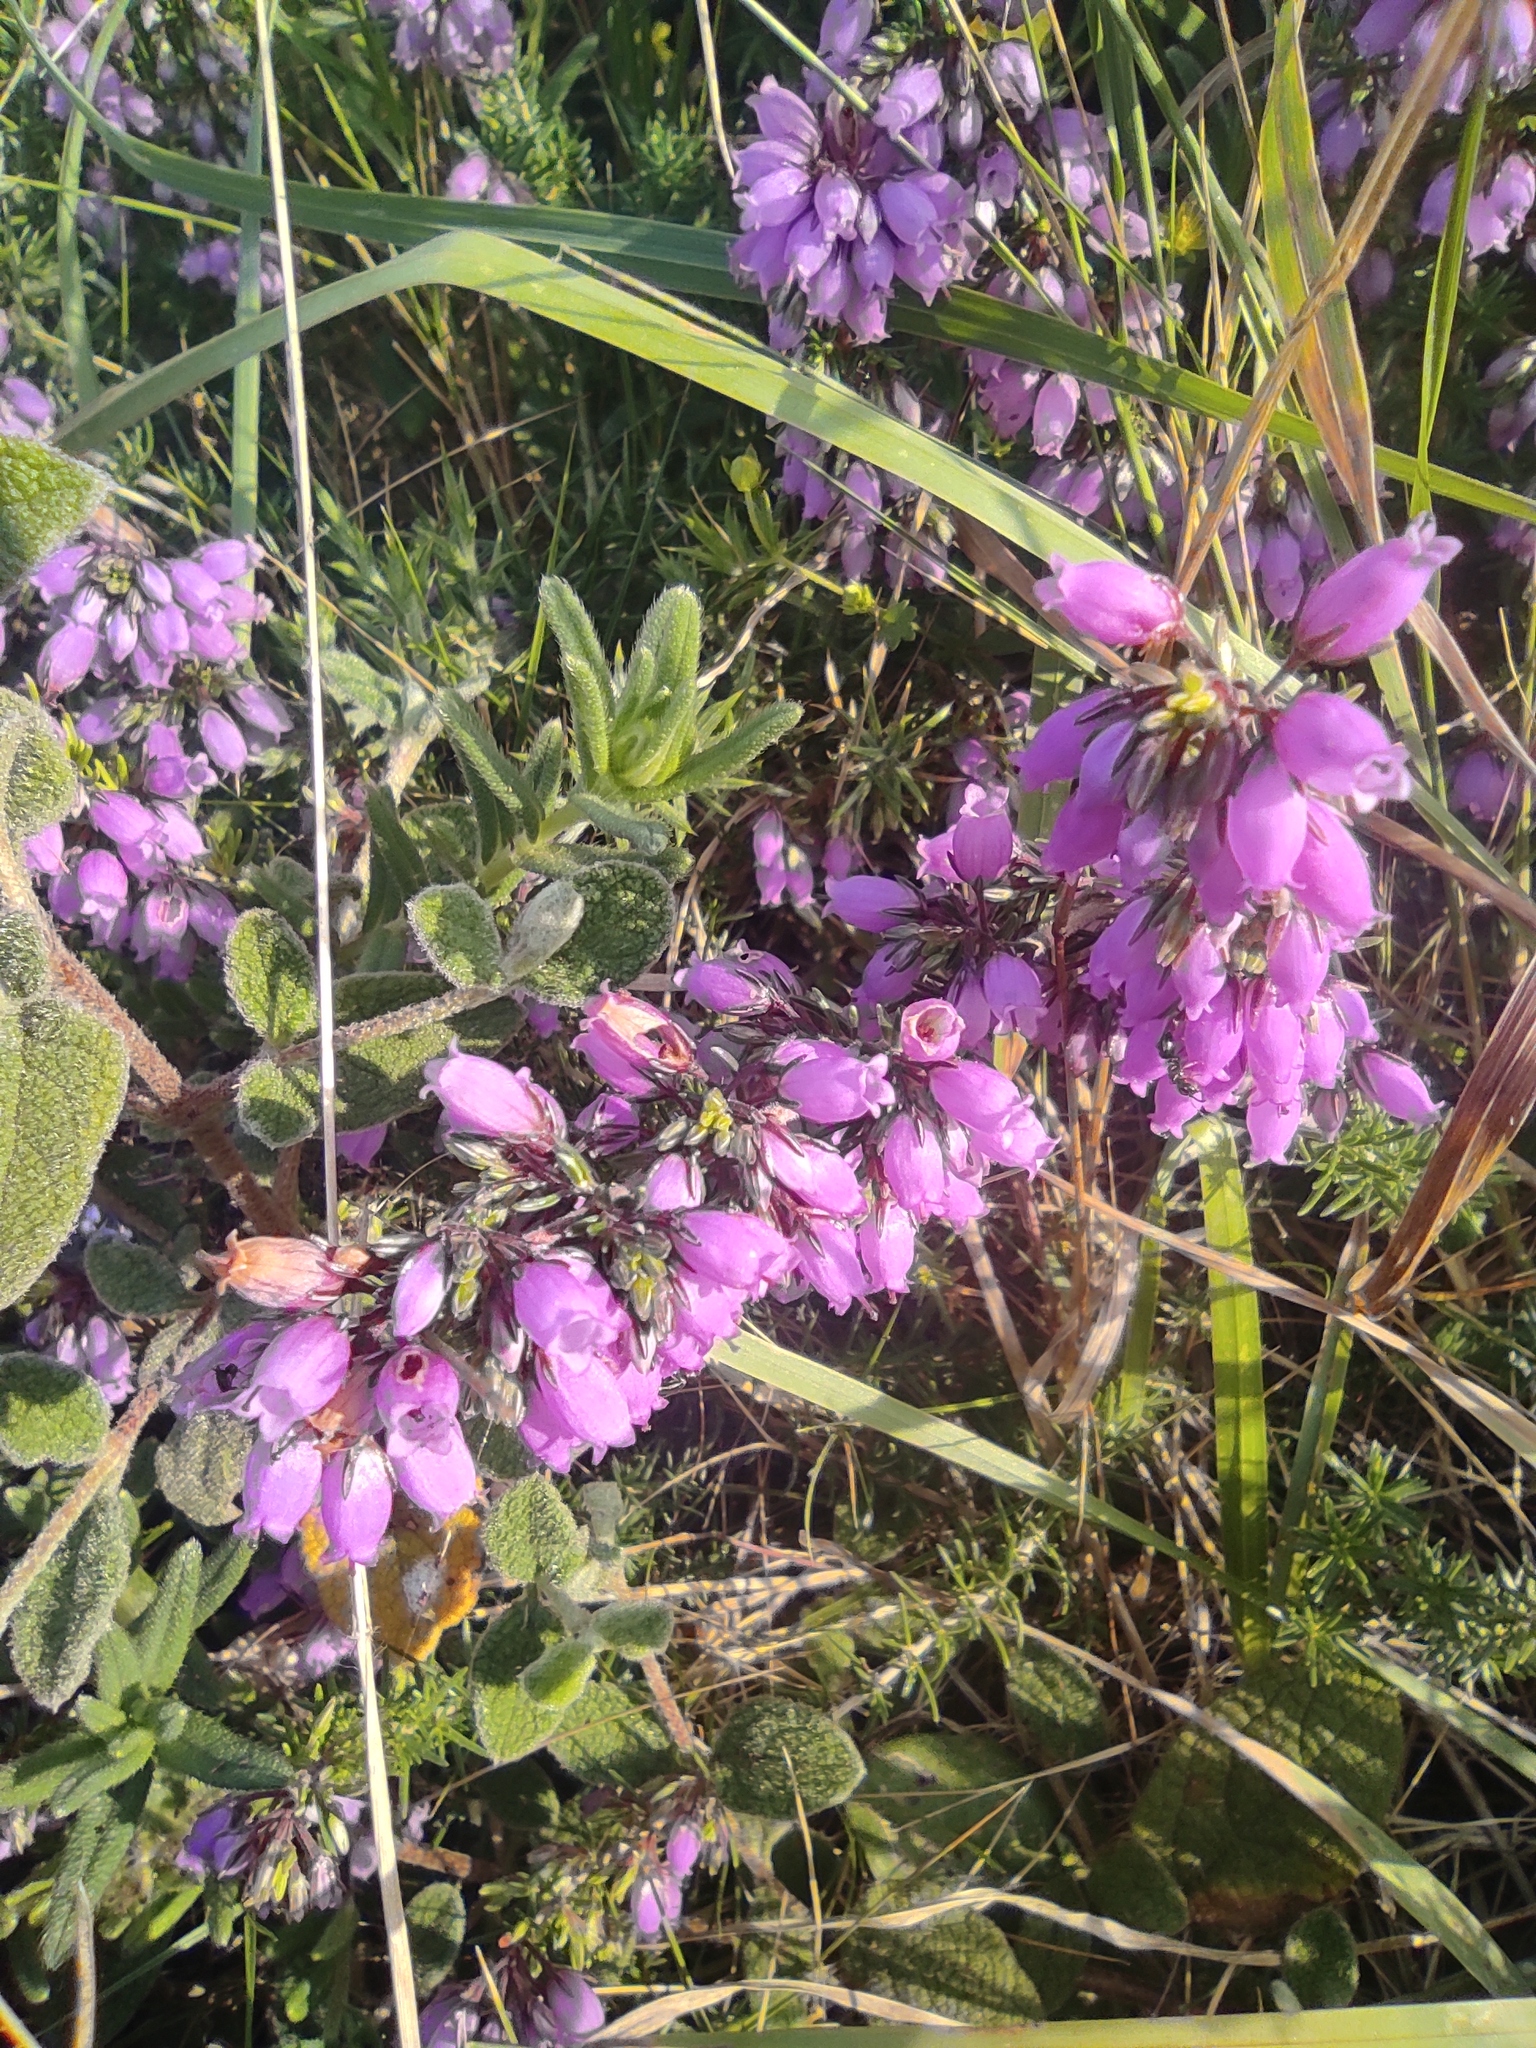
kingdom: Plantae
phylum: Tracheophyta
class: Magnoliopsida
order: Ericales
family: Ericaceae
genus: Erica
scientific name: Erica cinerea
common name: Bell heather
